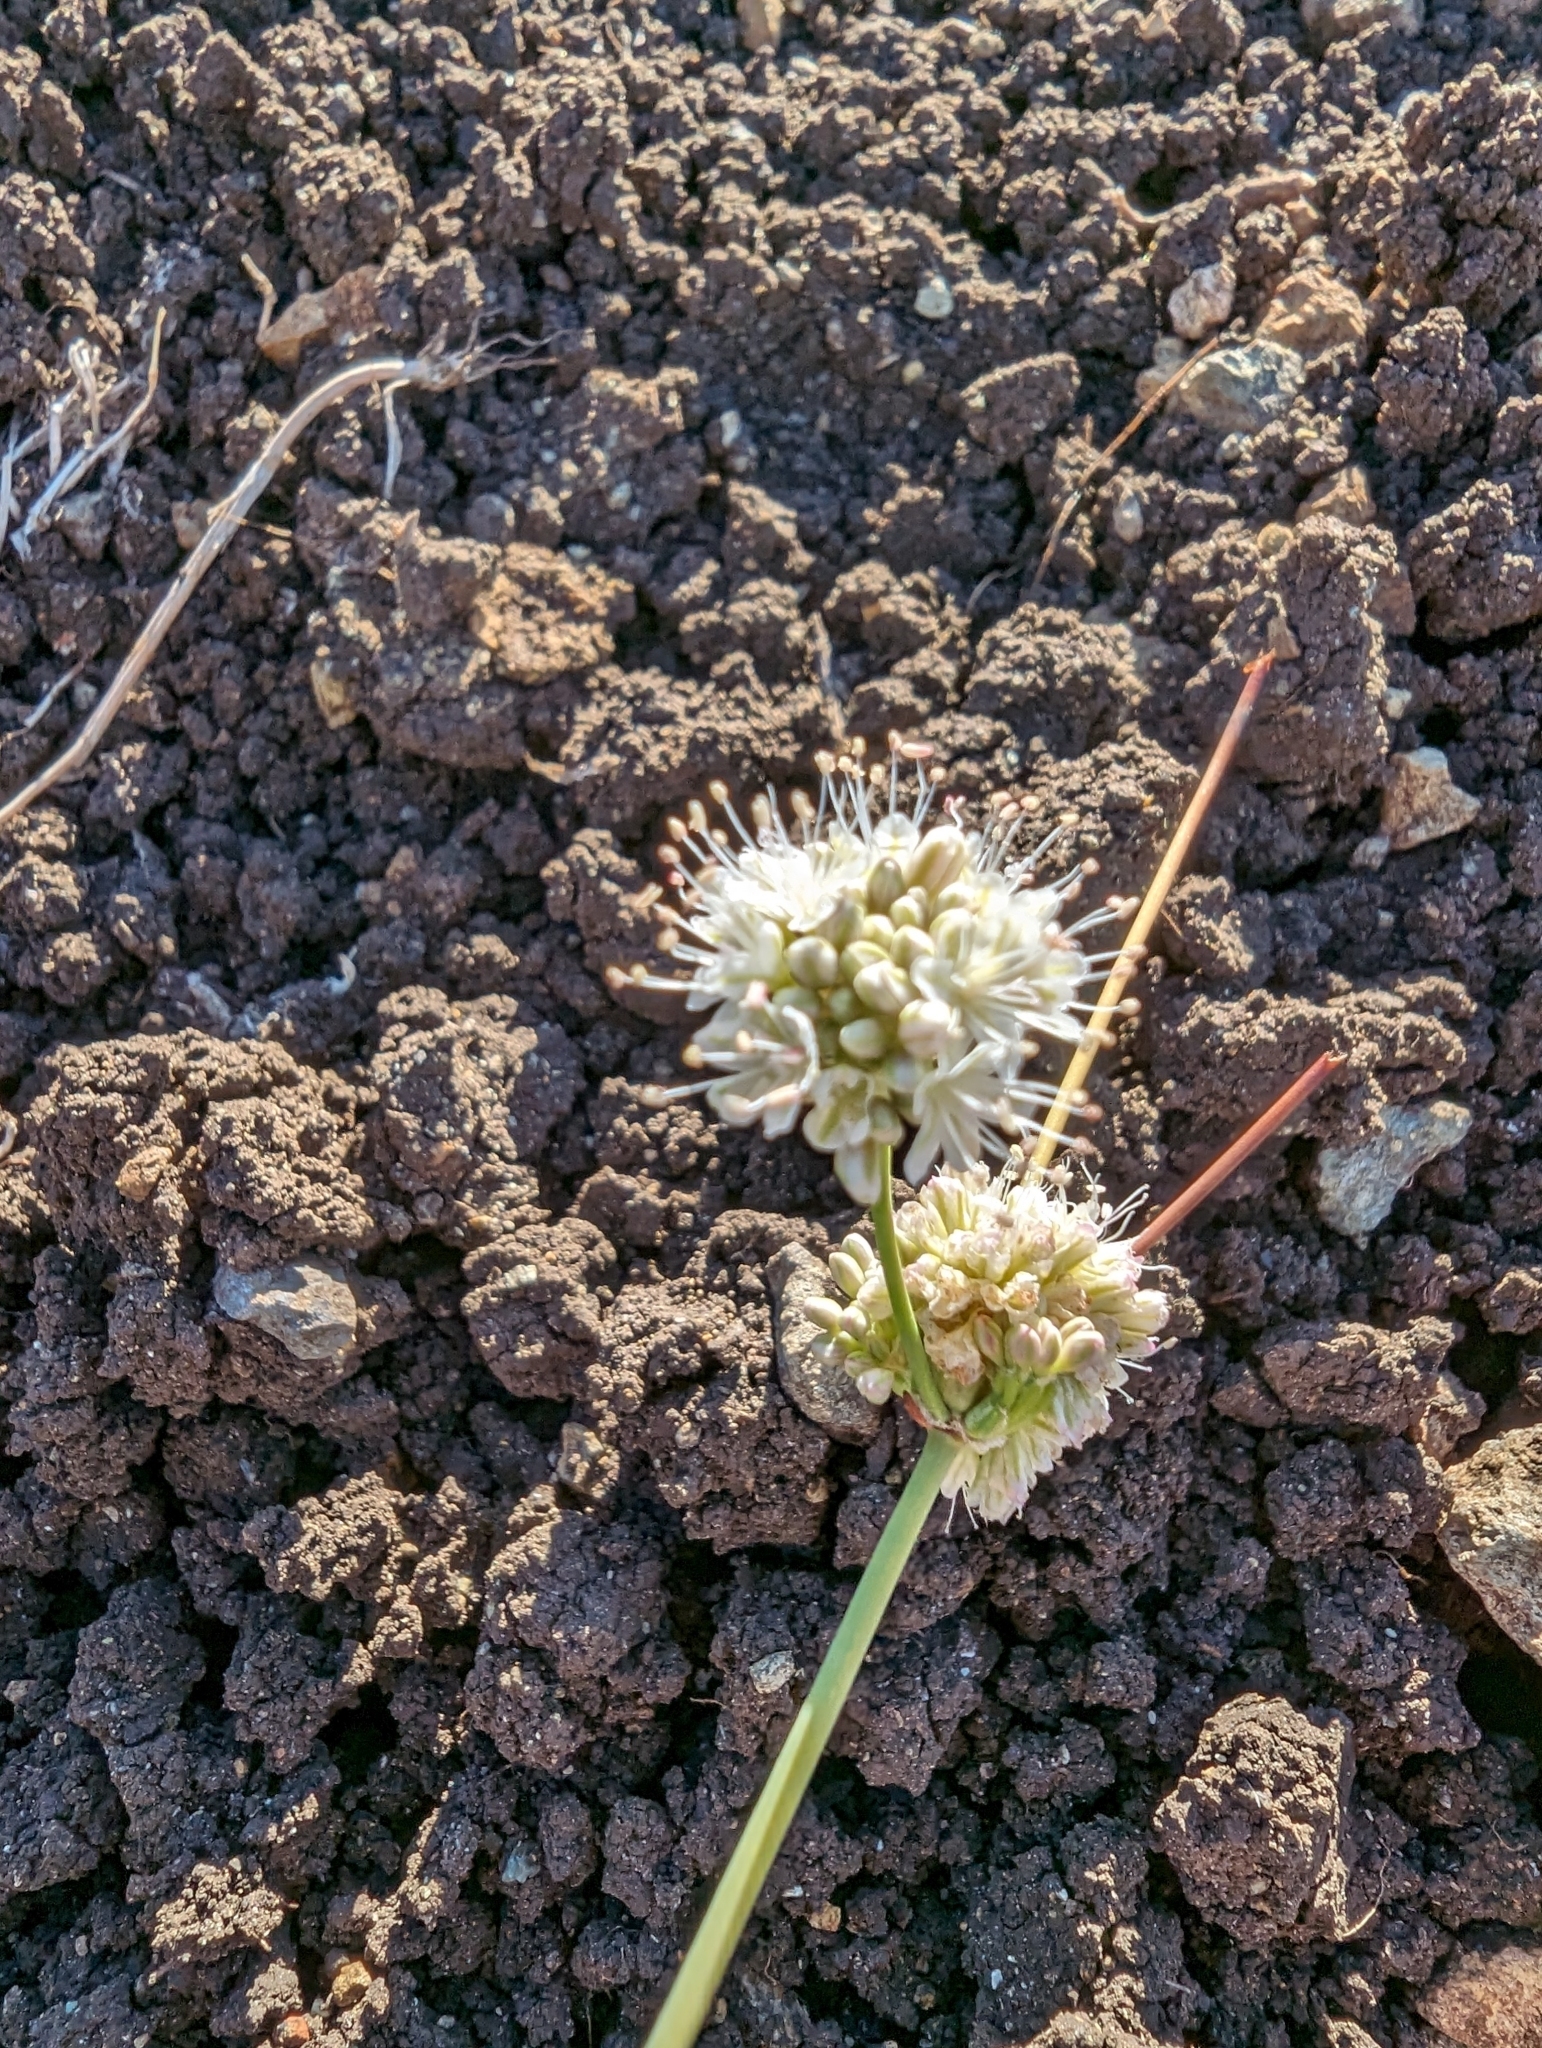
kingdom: Plantae
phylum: Tracheophyta
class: Magnoliopsida
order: Caryophyllales
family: Polygonaceae
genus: Eriogonum
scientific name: Eriogonum nudum
